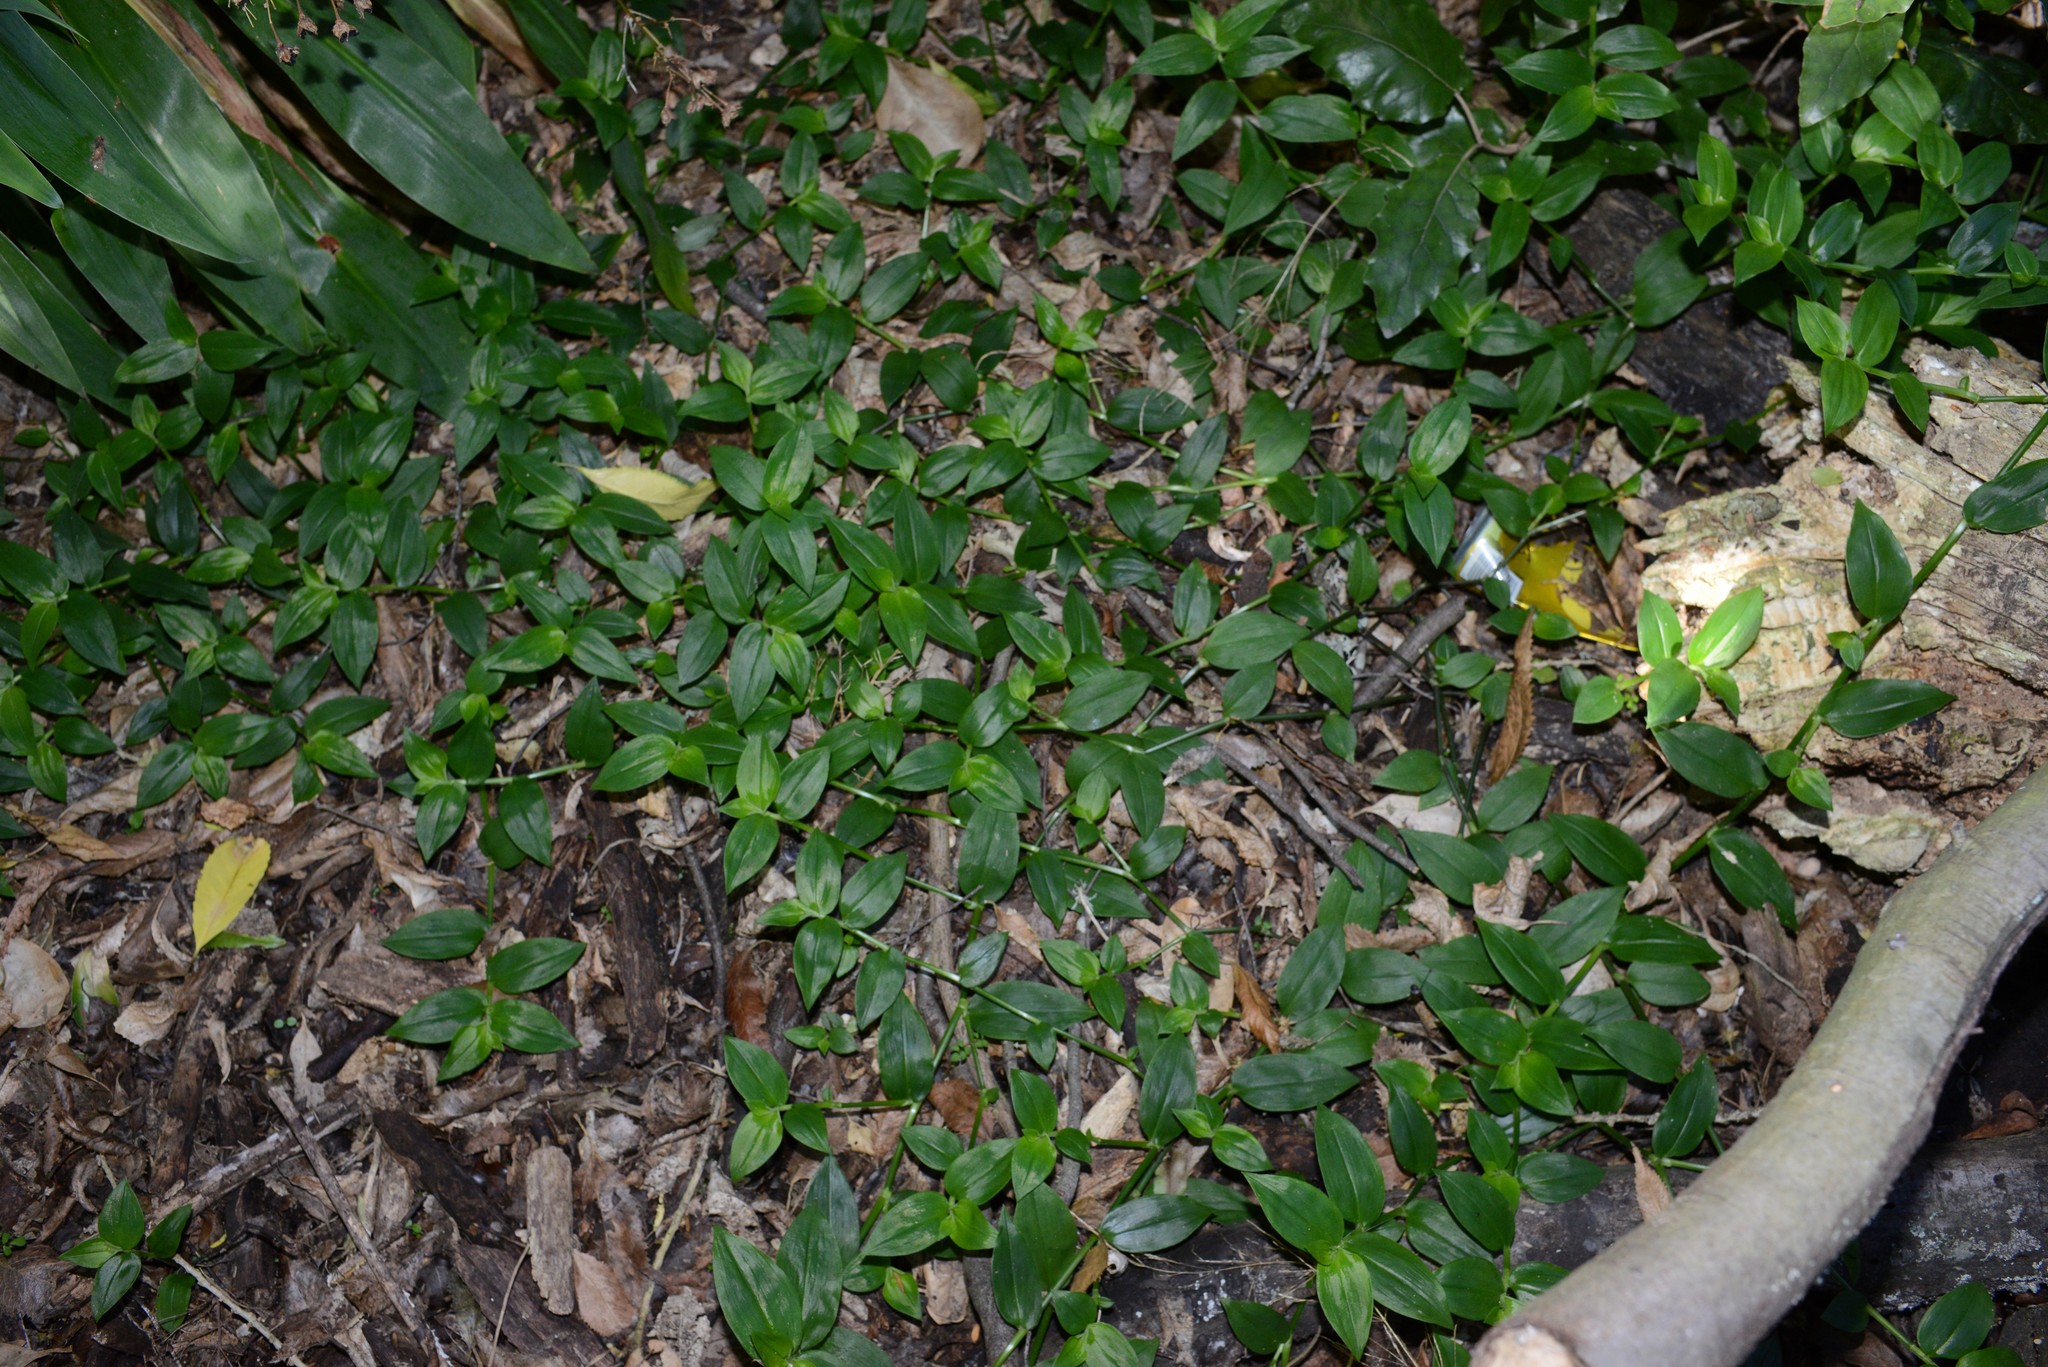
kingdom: Plantae
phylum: Tracheophyta
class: Liliopsida
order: Commelinales
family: Commelinaceae
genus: Tradescantia
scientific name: Tradescantia fluminensis
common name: Wandering-jew
